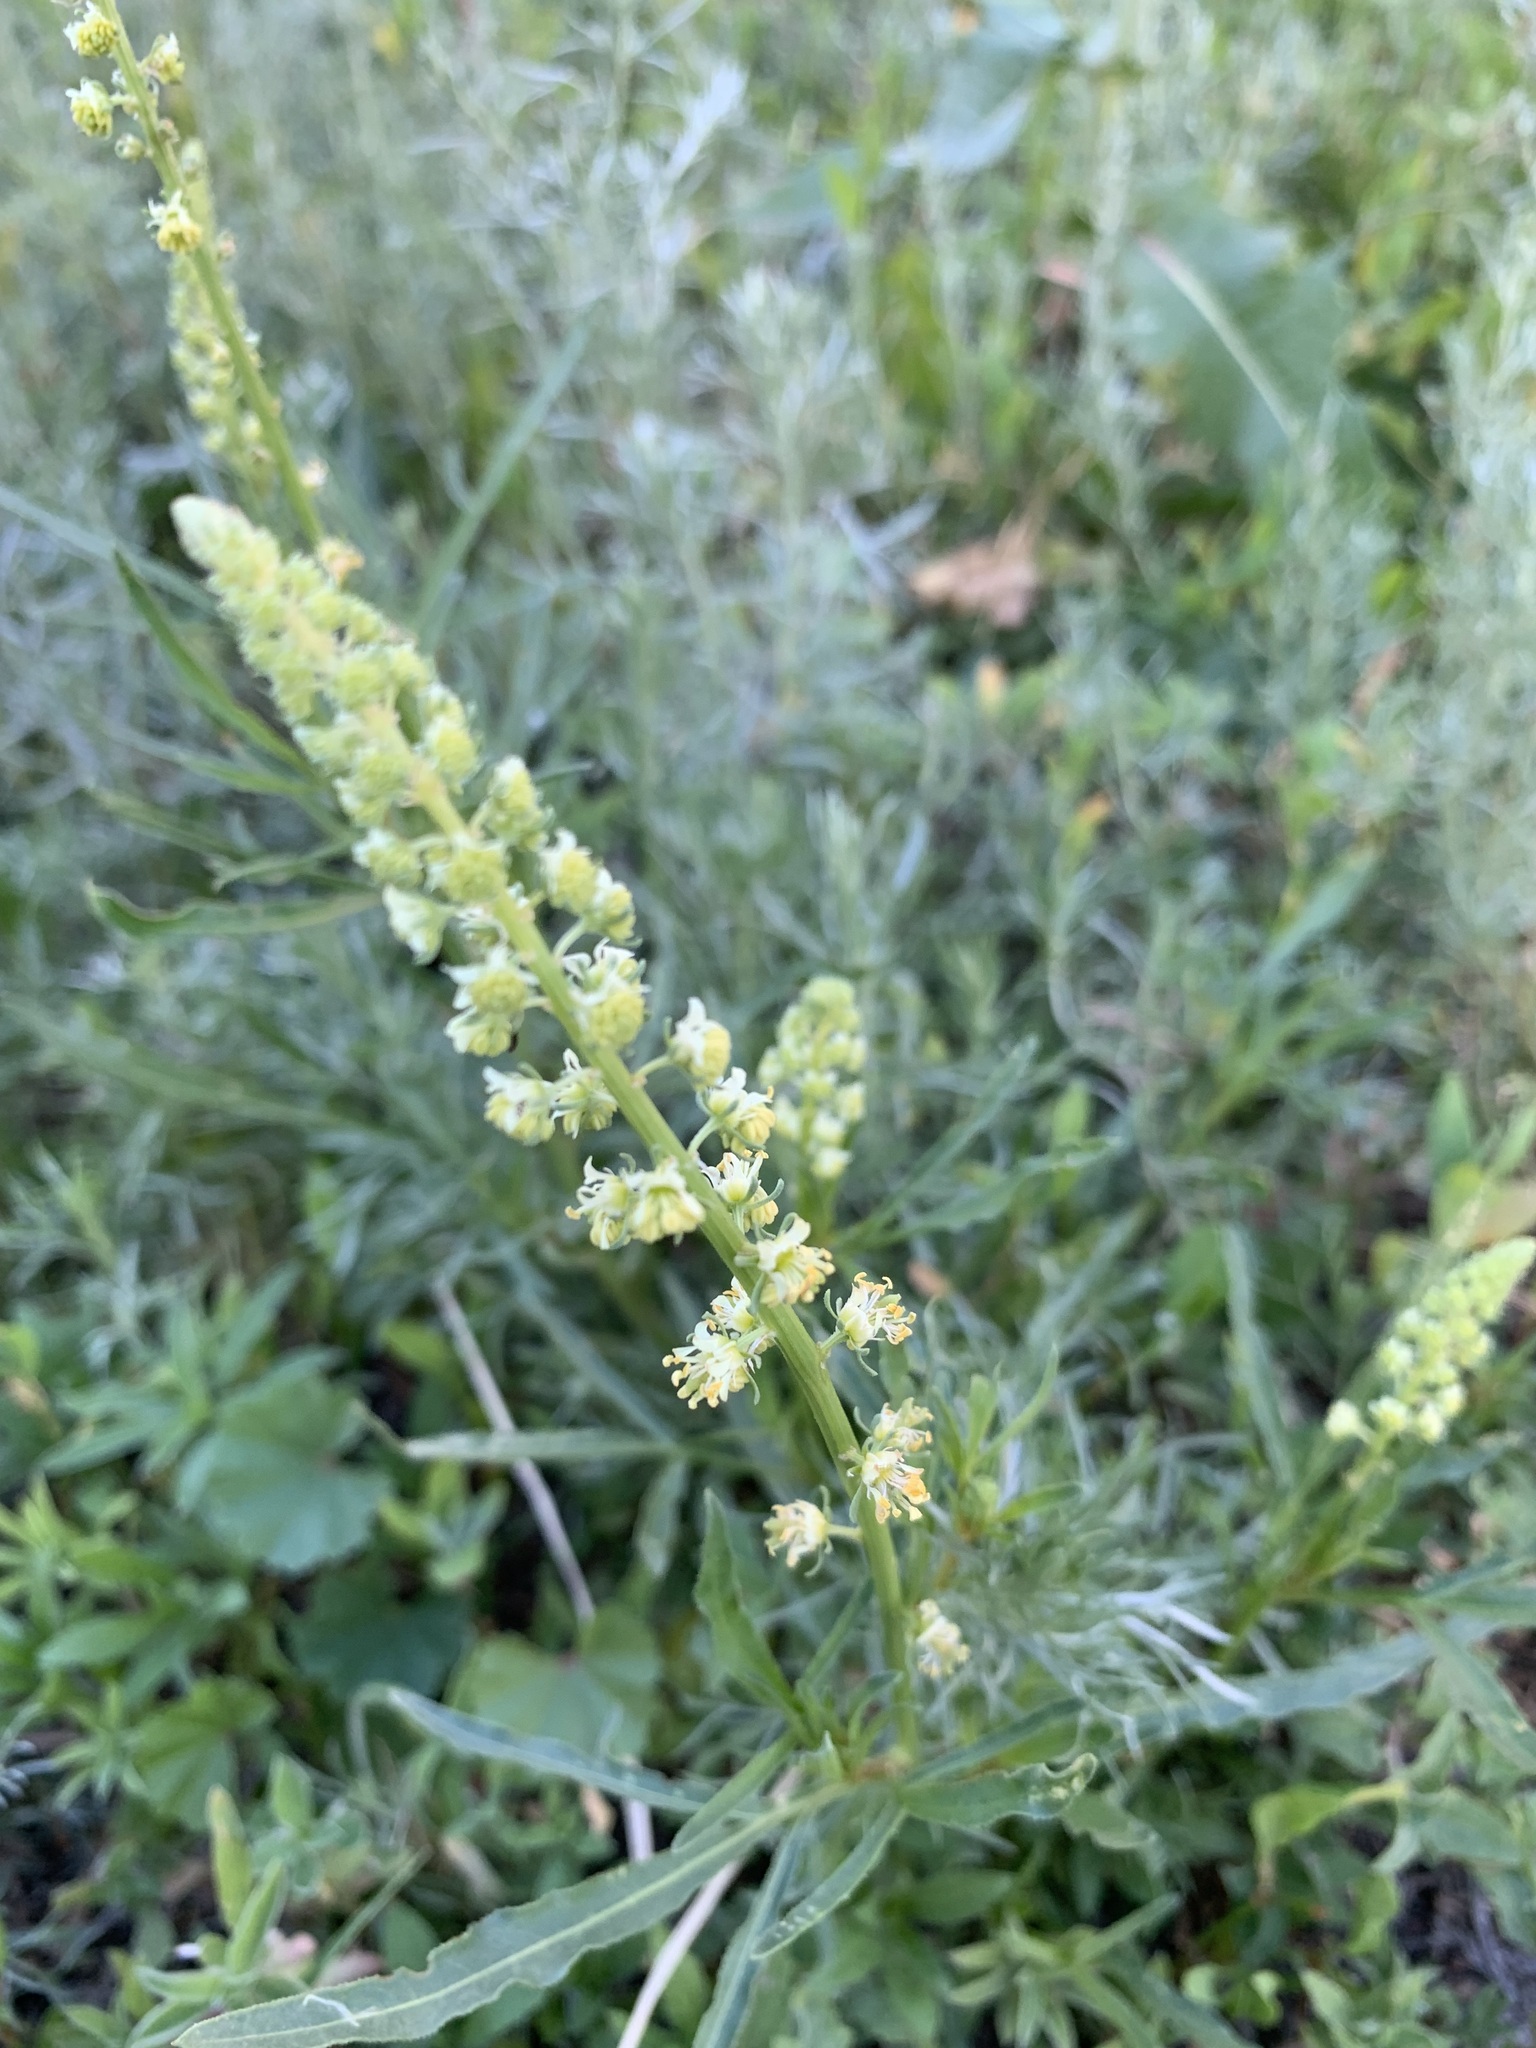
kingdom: Plantae
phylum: Tracheophyta
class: Magnoliopsida
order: Brassicales
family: Resedaceae
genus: Reseda
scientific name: Reseda lutea
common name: Wild mignonette
